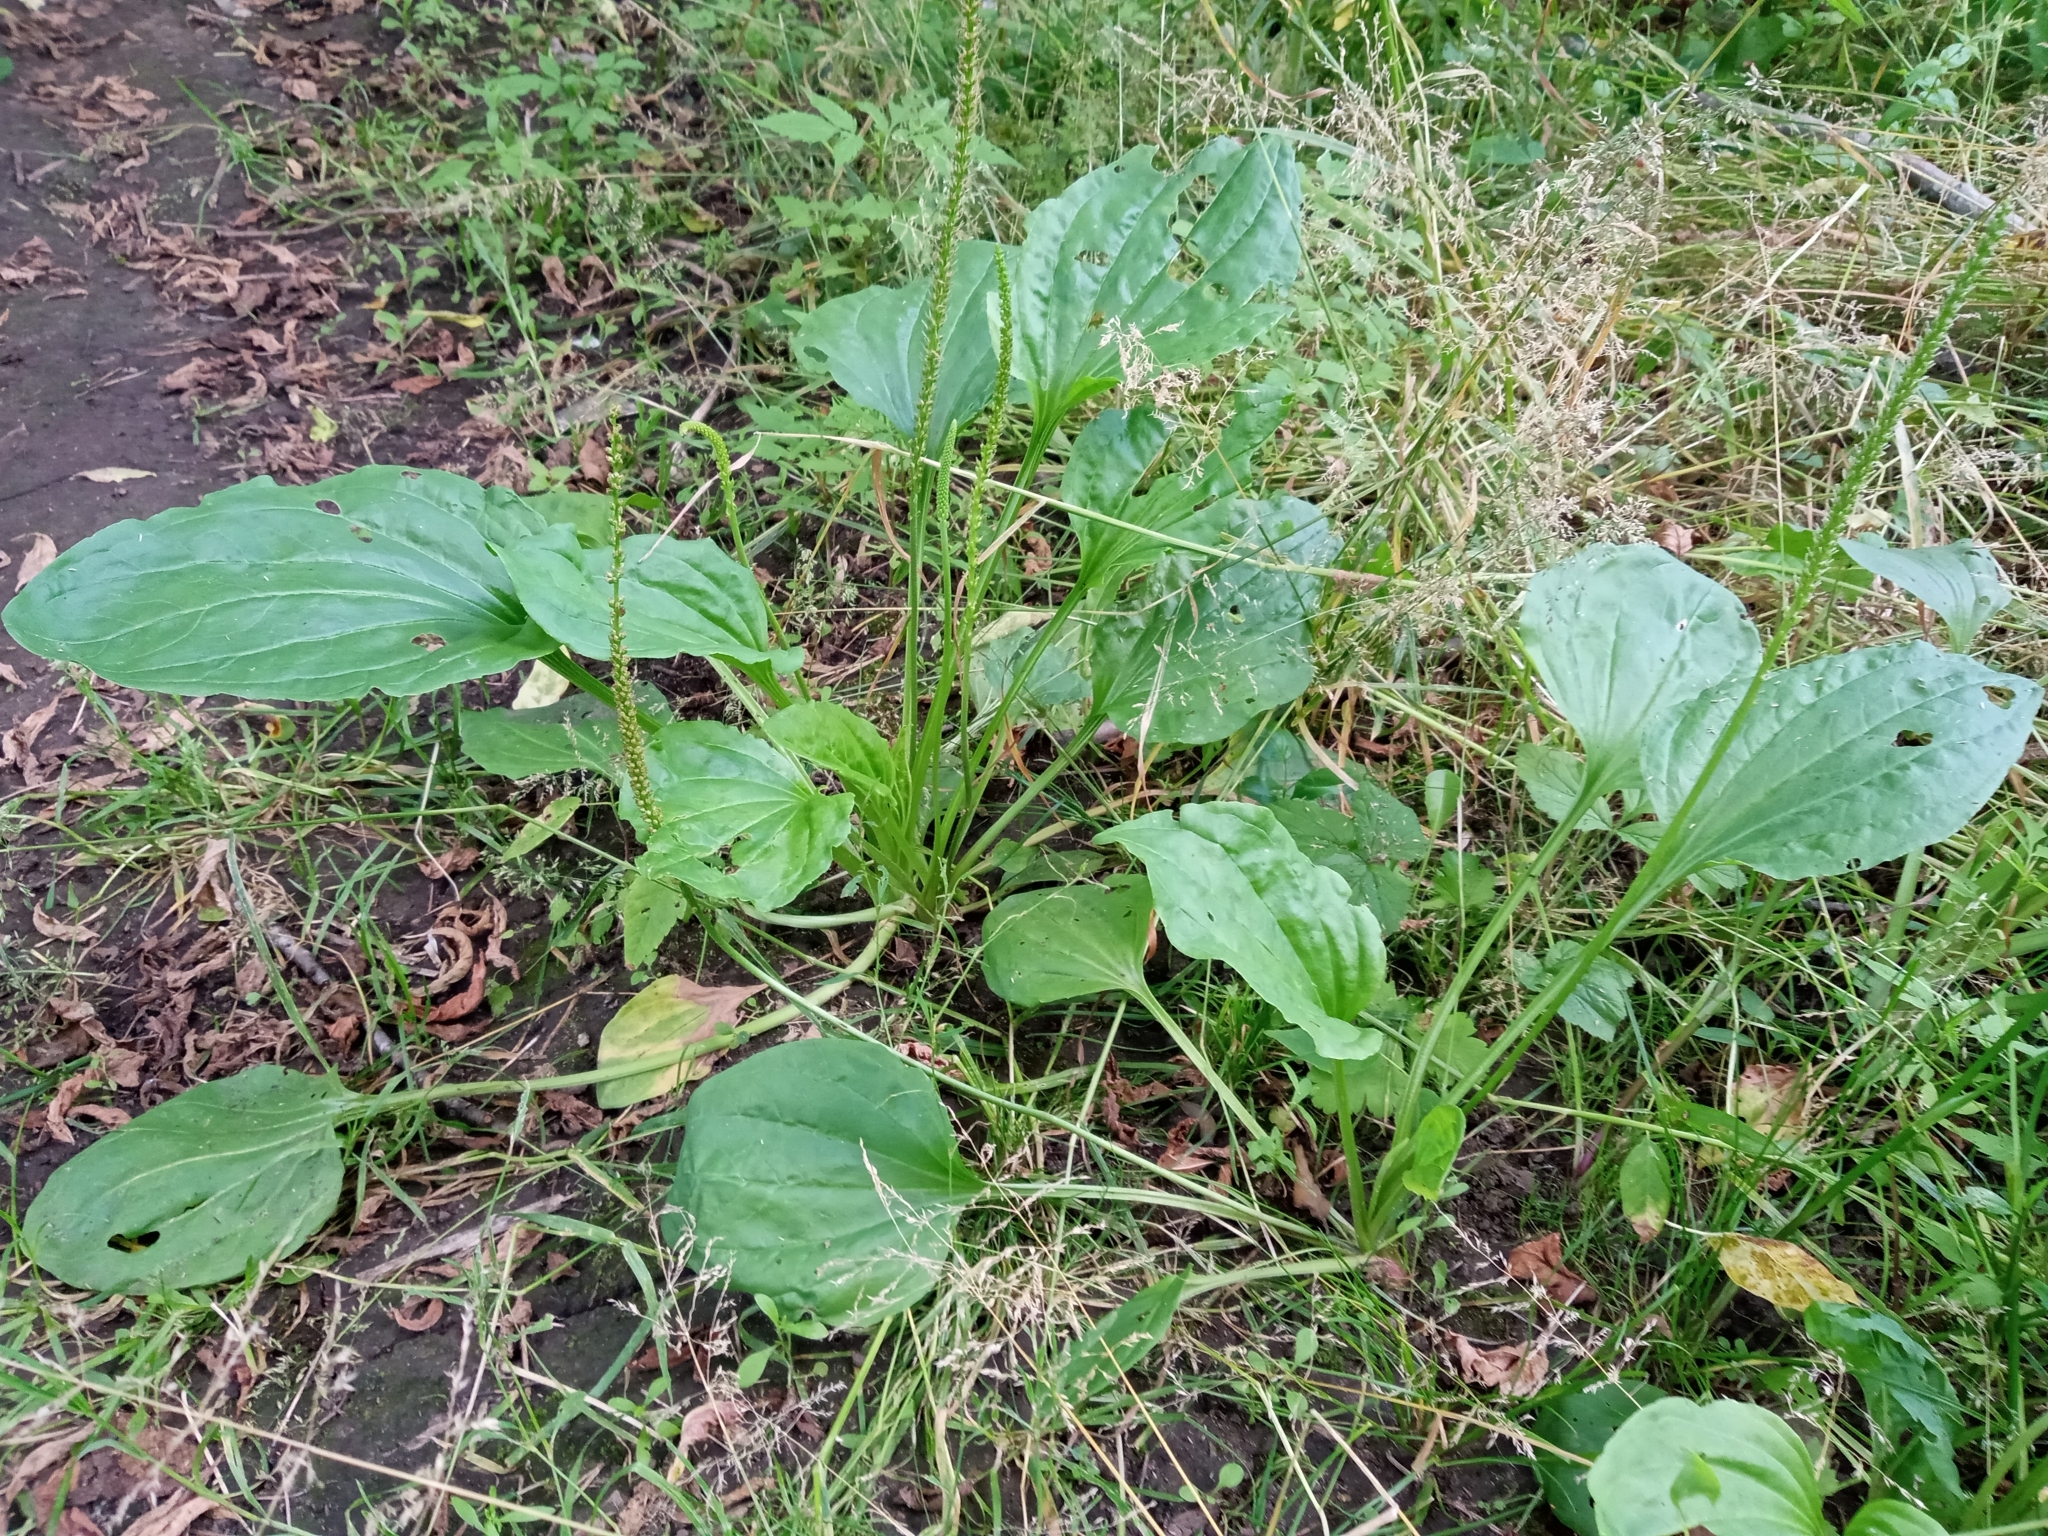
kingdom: Plantae
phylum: Tracheophyta
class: Magnoliopsida
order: Lamiales
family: Plantaginaceae
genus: Plantago
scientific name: Plantago major
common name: Common plantain
